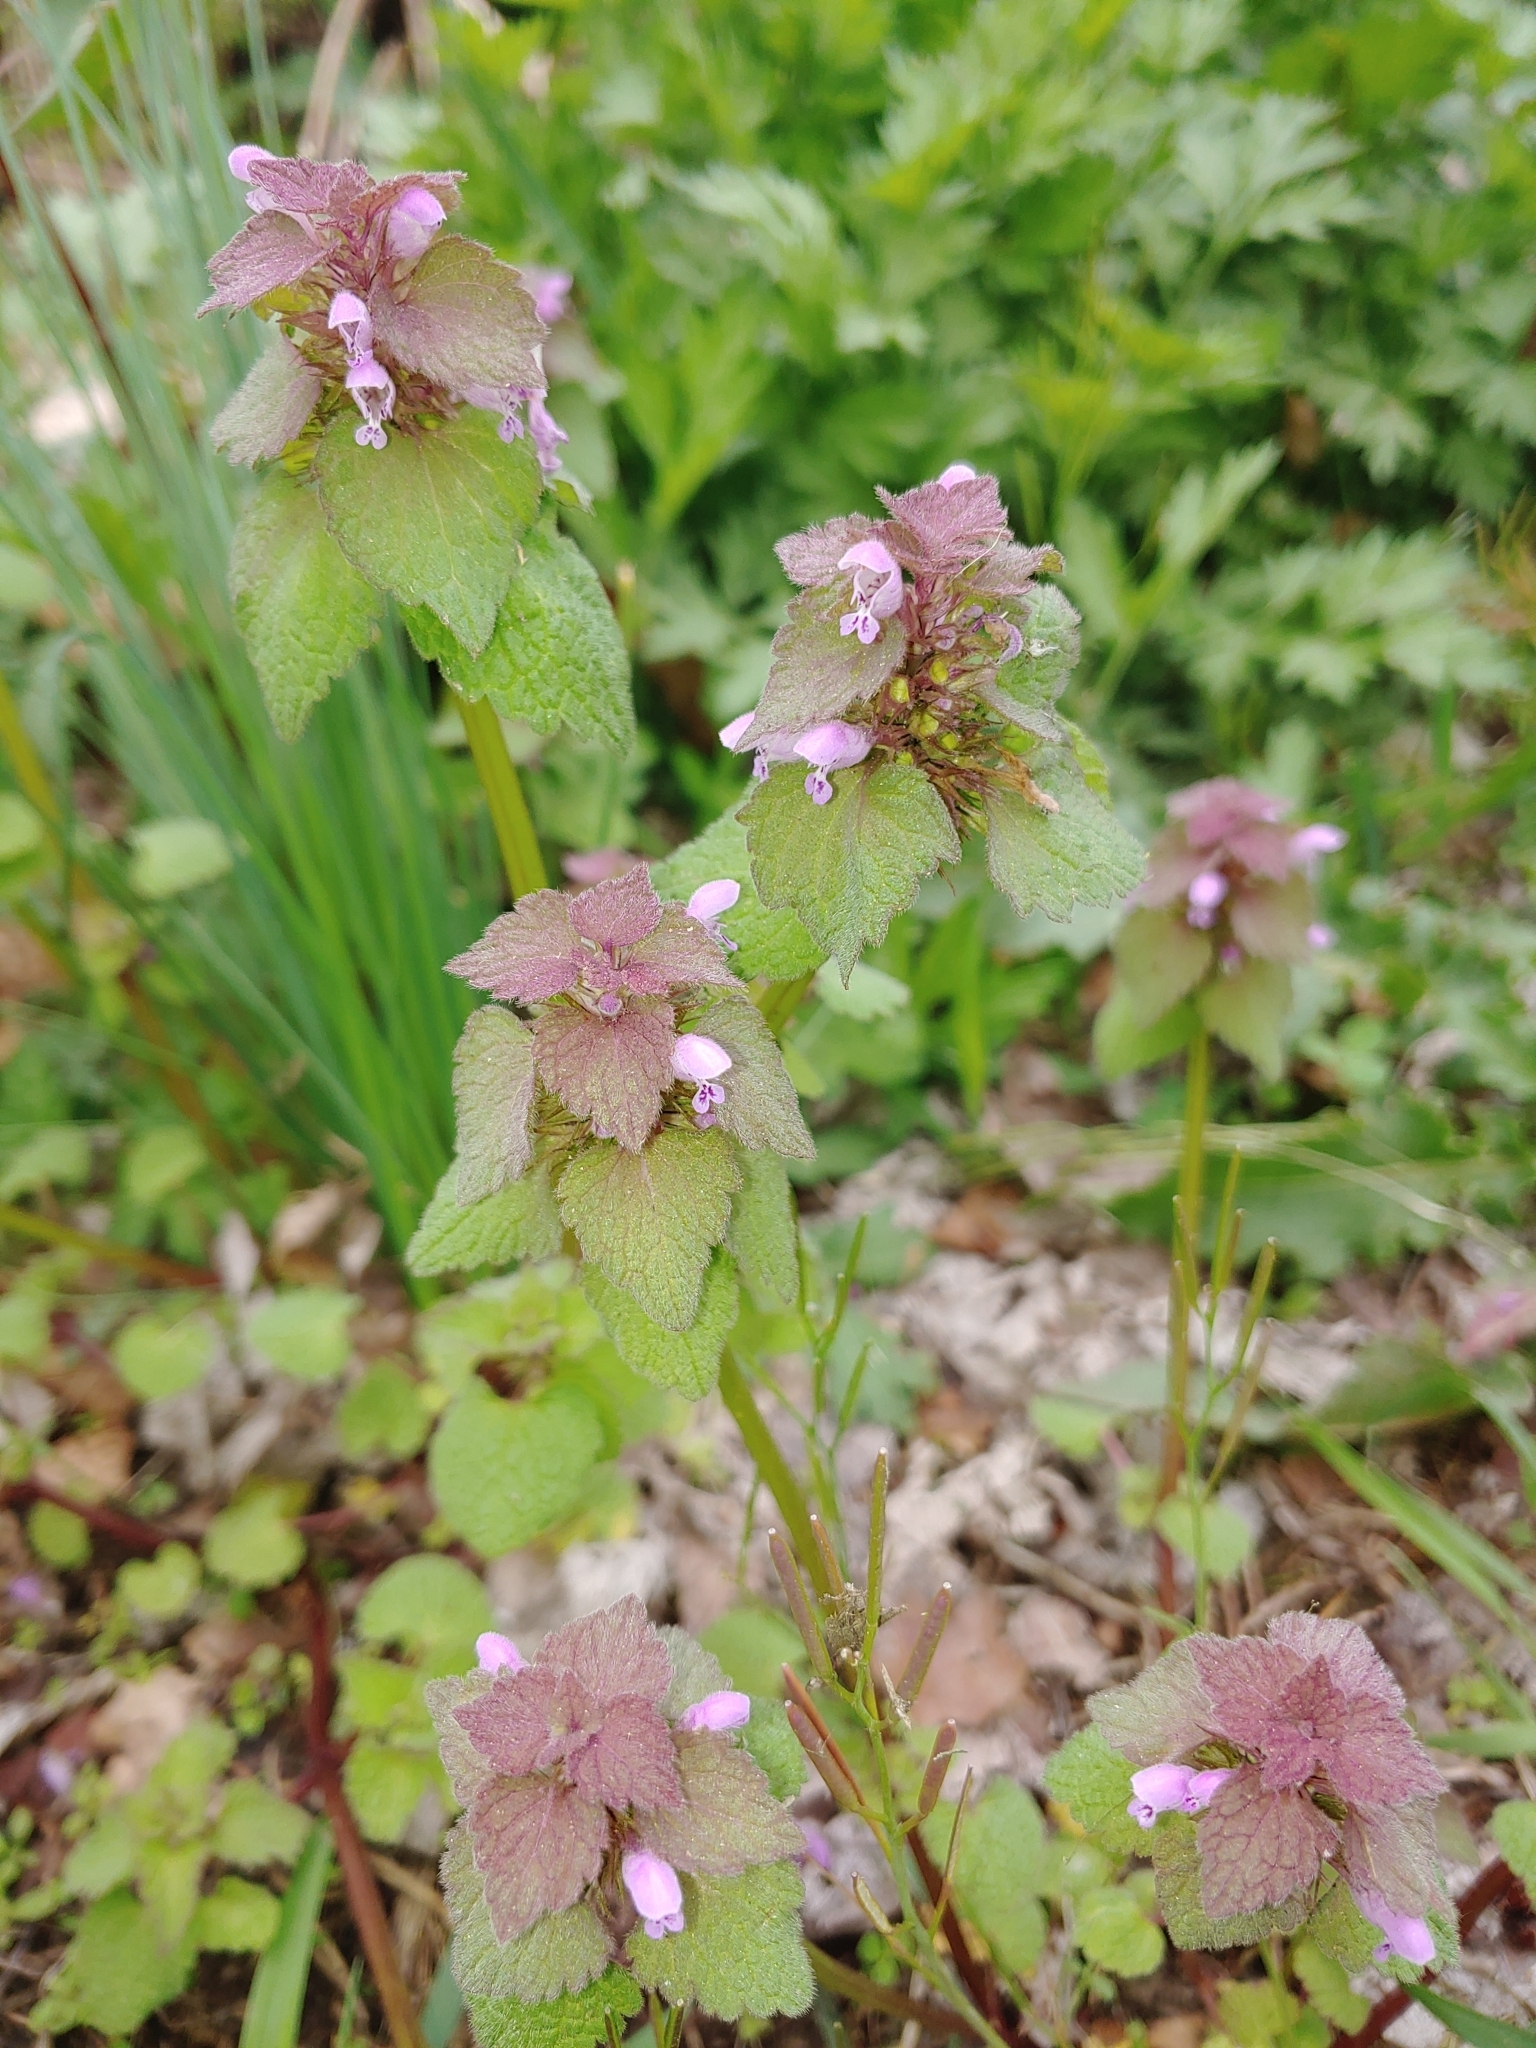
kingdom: Plantae
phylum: Tracheophyta
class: Magnoliopsida
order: Lamiales
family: Lamiaceae
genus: Lamium
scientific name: Lamium purpureum
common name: Red dead-nettle
